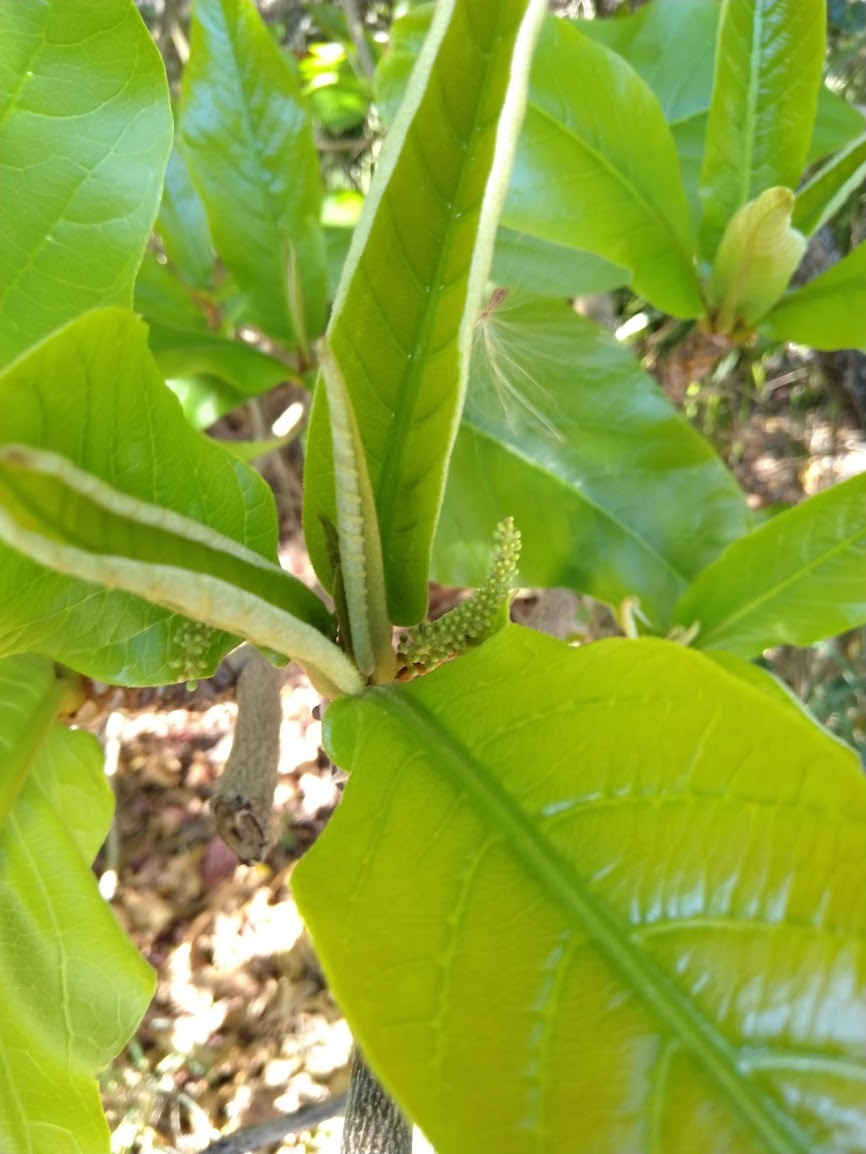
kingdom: Plantae
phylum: Tracheophyta
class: Magnoliopsida
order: Myrtales
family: Combretaceae
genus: Terminalia
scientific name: Terminalia catappa
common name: Tropical almond
